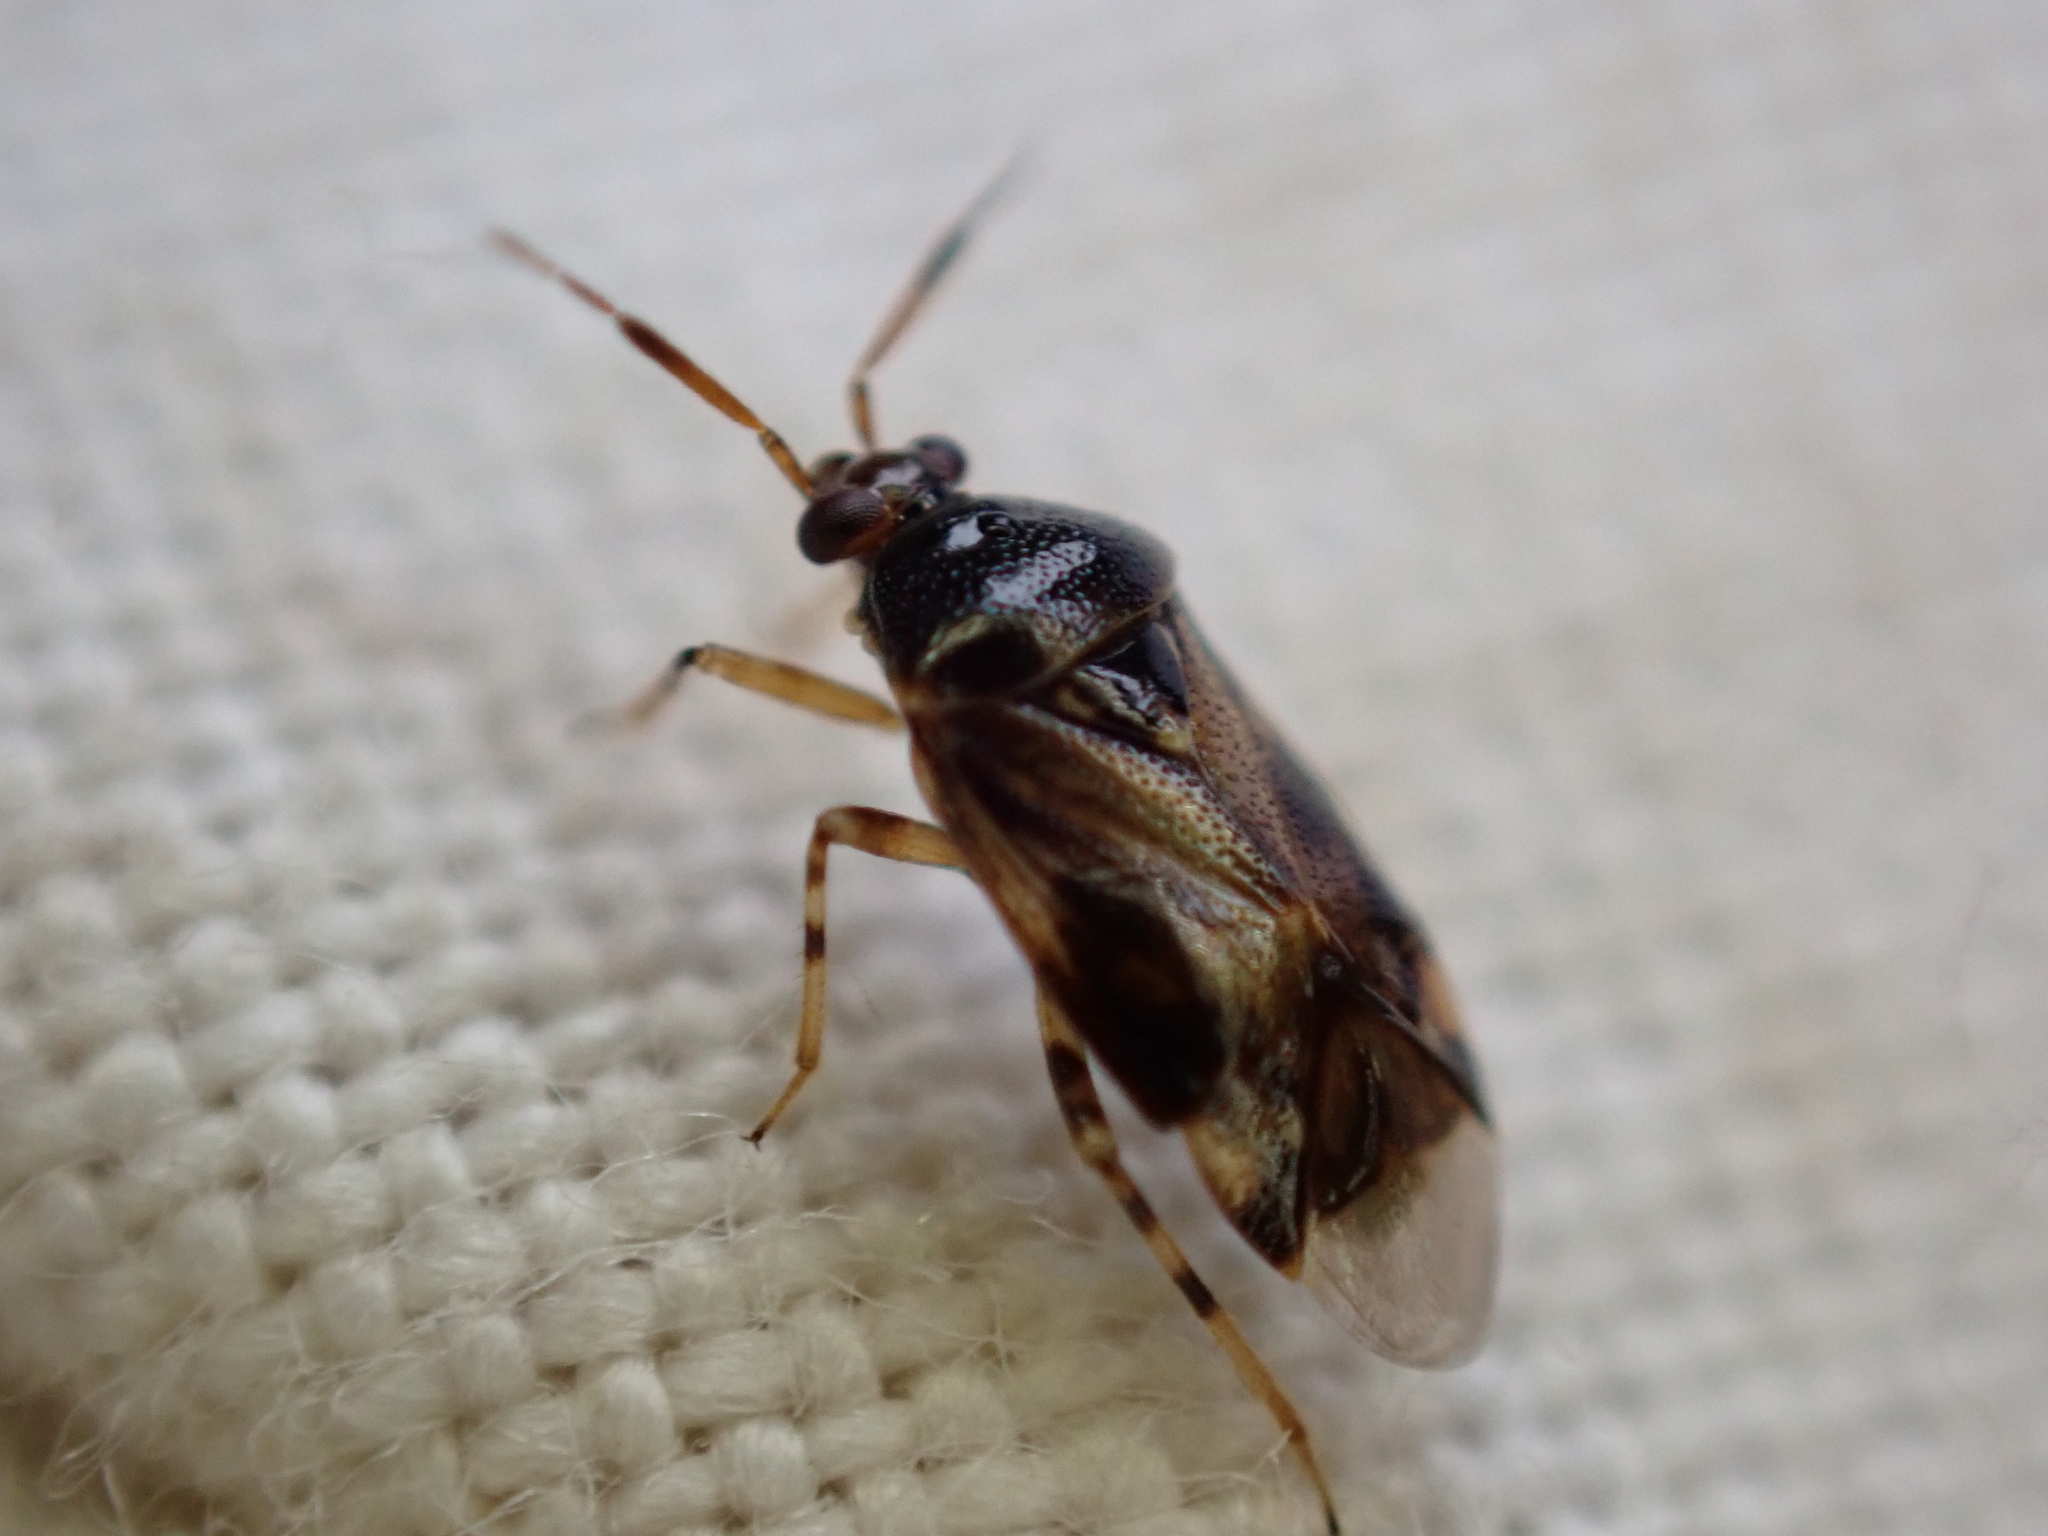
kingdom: Animalia
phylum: Arthropoda
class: Insecta
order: Hemiptera
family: Miridae
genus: Deraeocoris
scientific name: Deraeocoris lutescens
